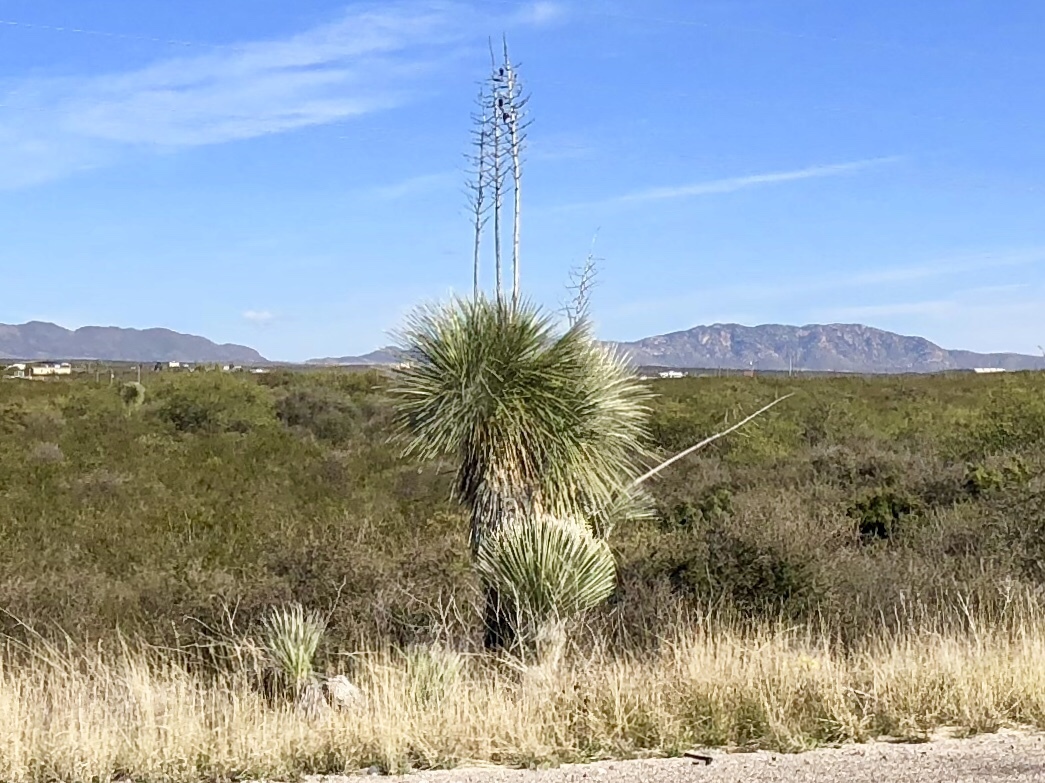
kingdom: Plantae
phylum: Tracheophyta
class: Liliopsida
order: Asparagales
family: Asparagaceae
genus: Yucca
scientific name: Yucca elata
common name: Palmella
